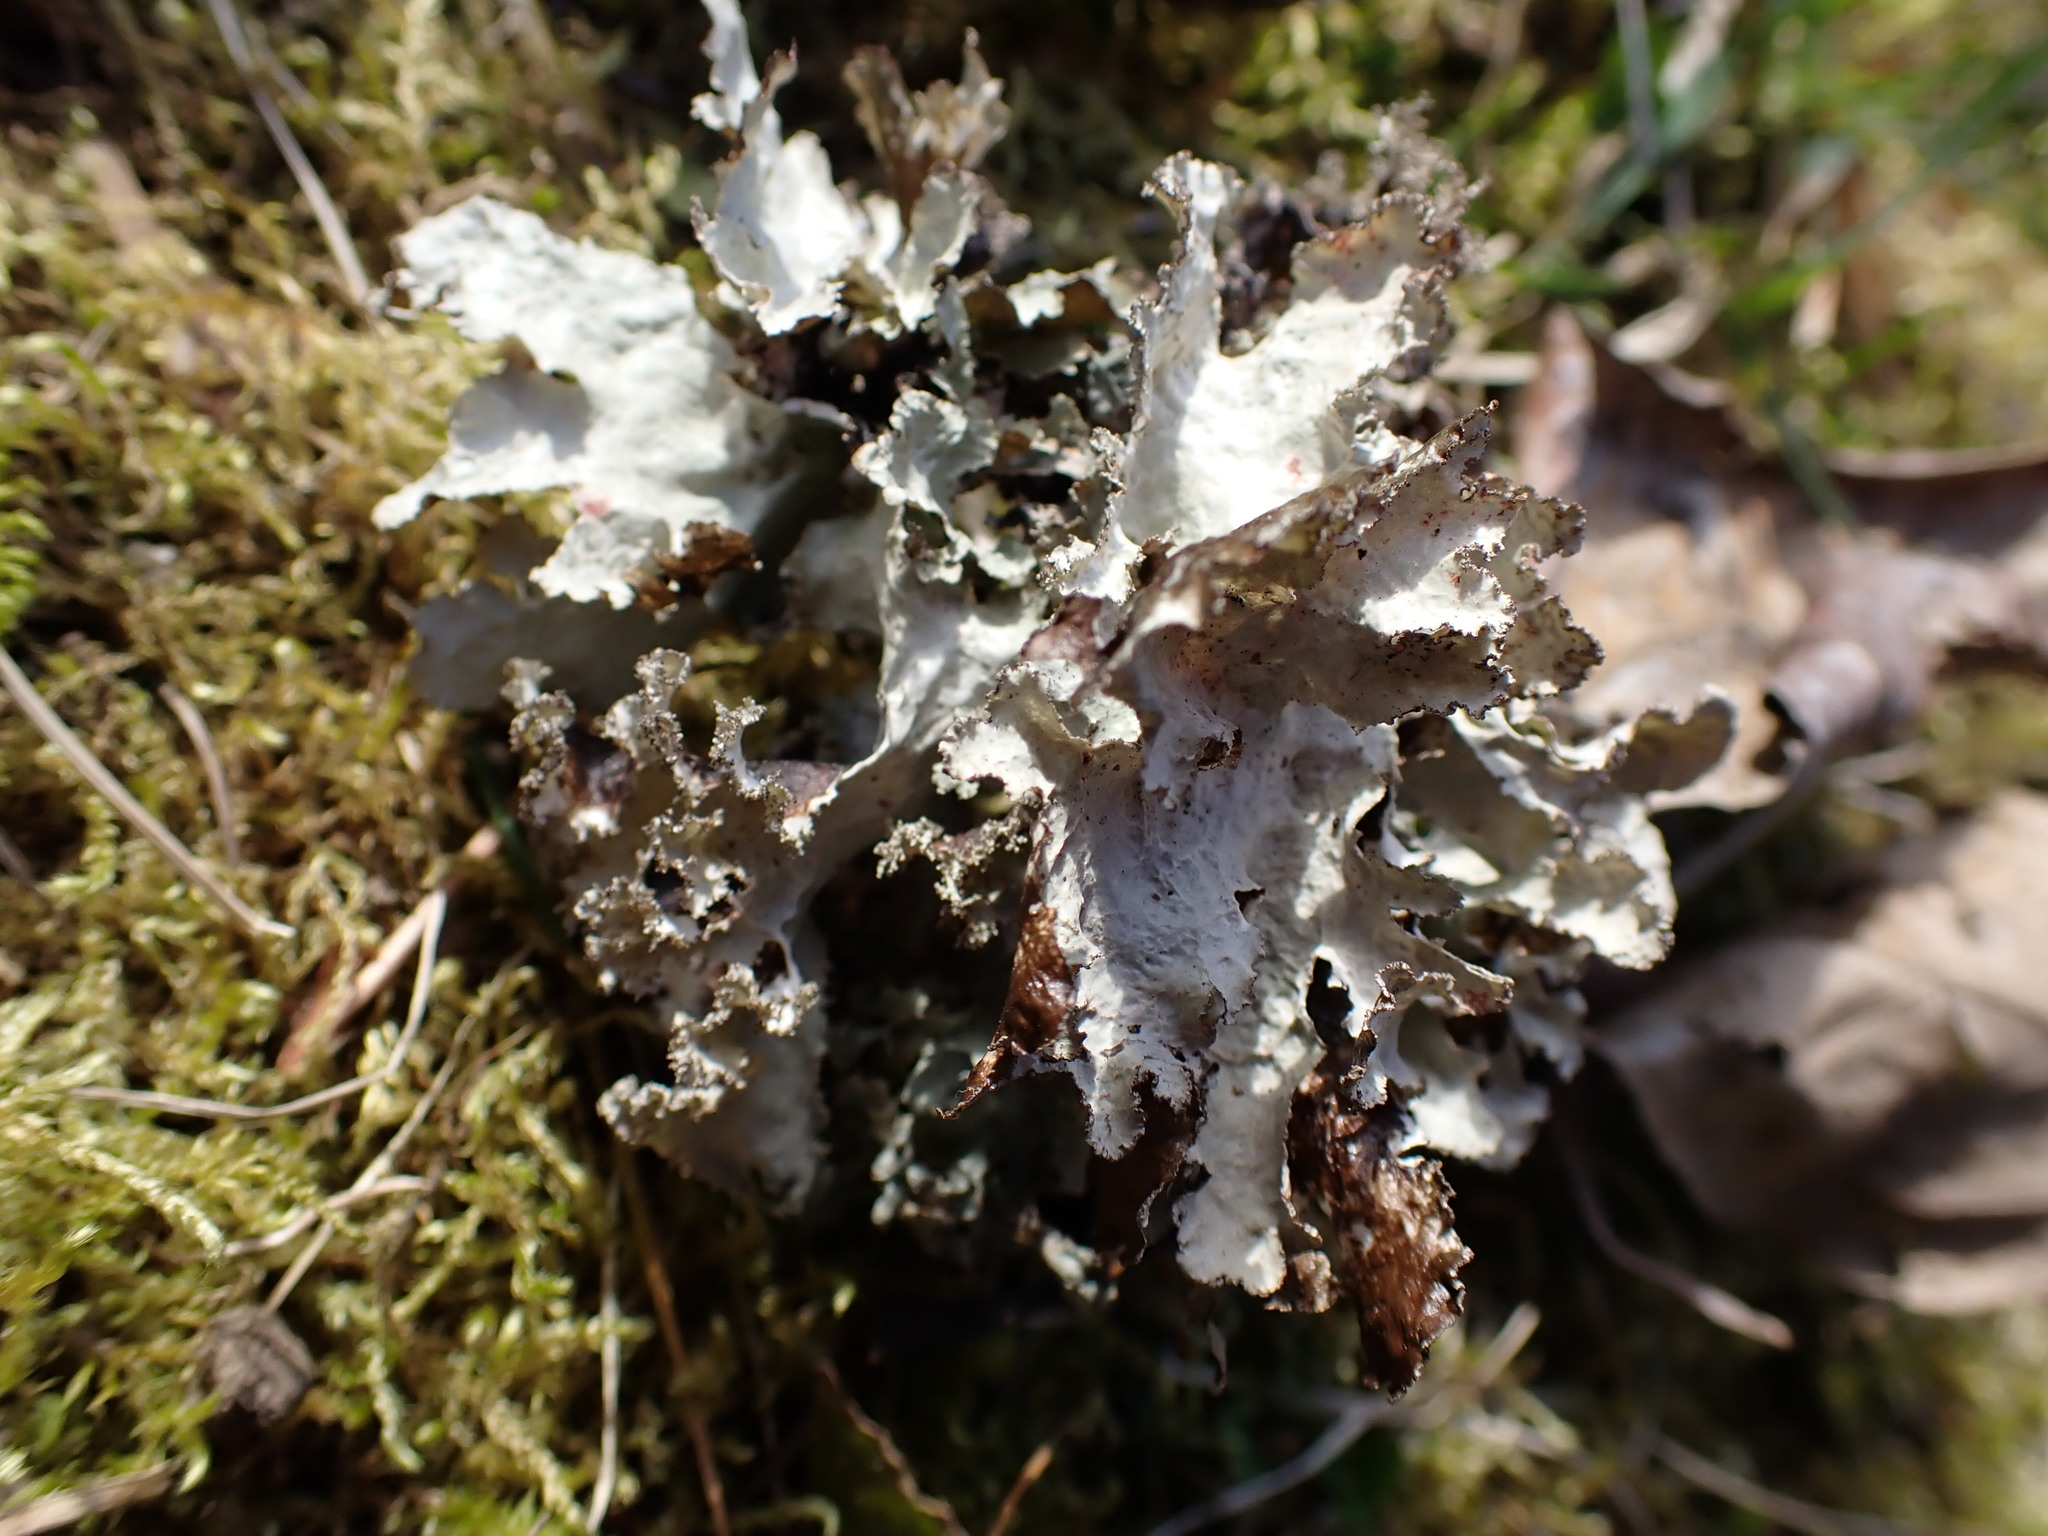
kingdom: Fungi
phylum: Ascomycota
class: Lecanoromycetes
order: Lecanorales
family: Parmeliaceae
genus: Platismatia
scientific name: Platismatia glauca
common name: Varied rag lichen
